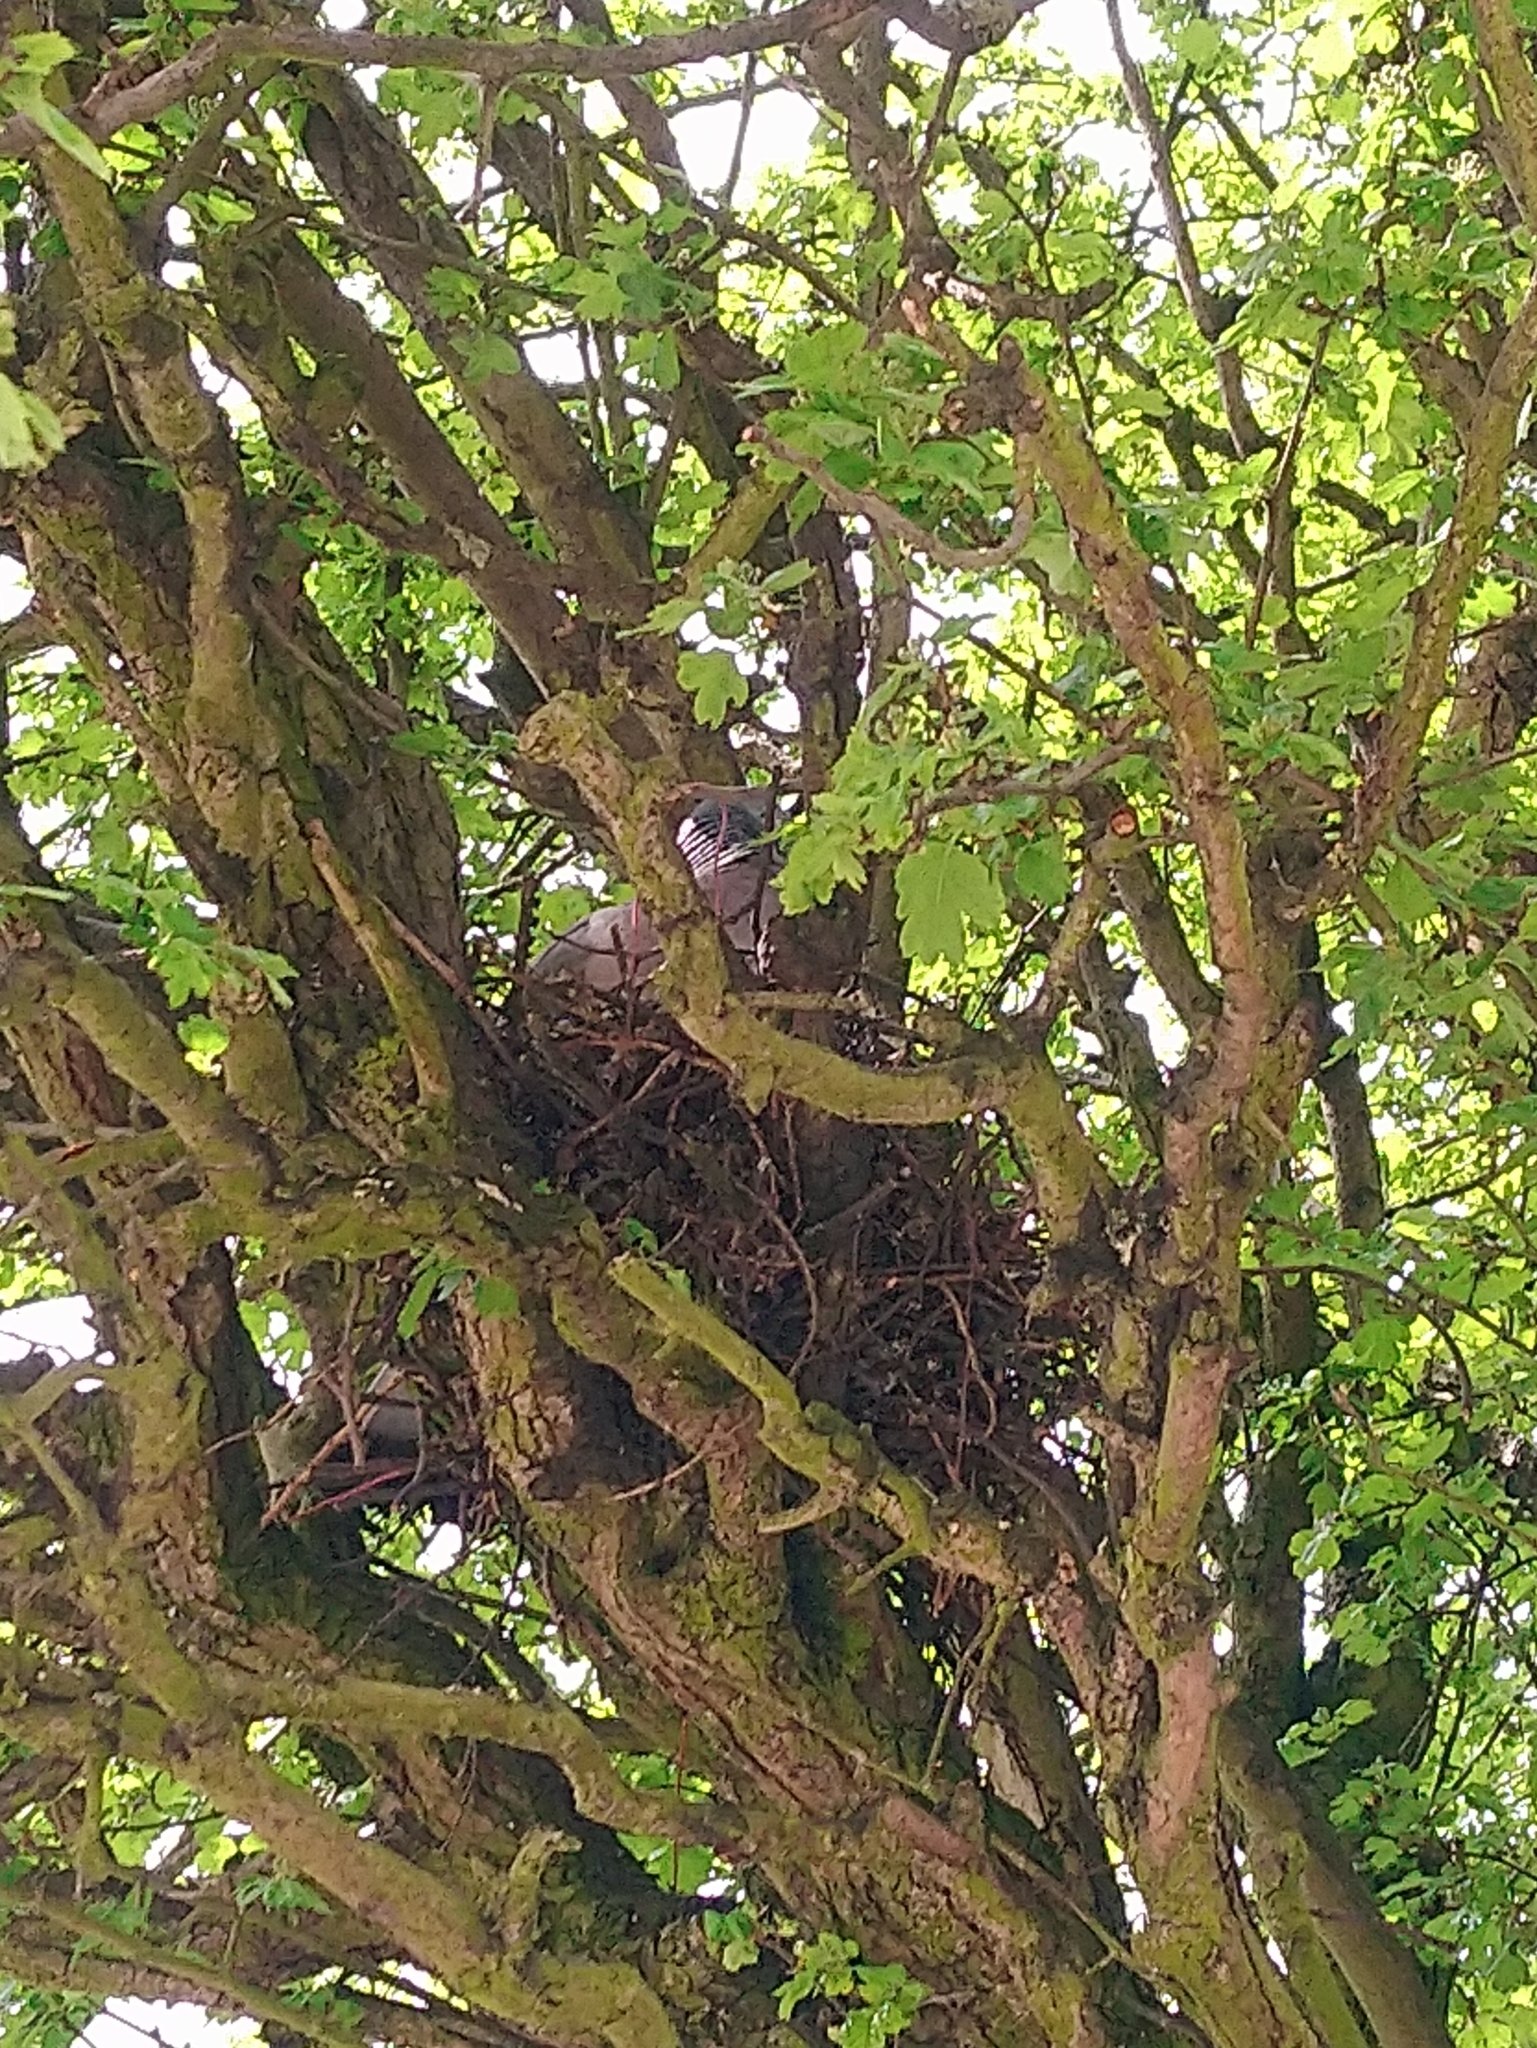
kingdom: Animalia
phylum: Chordata
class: Aves
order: Columbiformes
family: Columbidae
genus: Columba
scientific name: Columba palumbus
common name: Common wood pigeon
